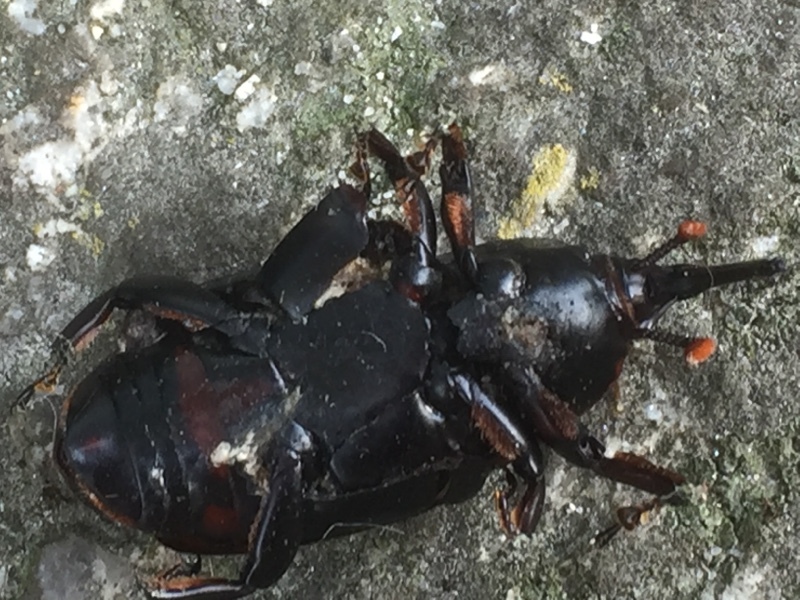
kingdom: Animalia
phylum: Arthropoda
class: Insecta
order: Coleoptera
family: Dryophthoridae
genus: Rhynchophorus
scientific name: Rhynchophorus ferrugineus
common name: Red palm weevil
